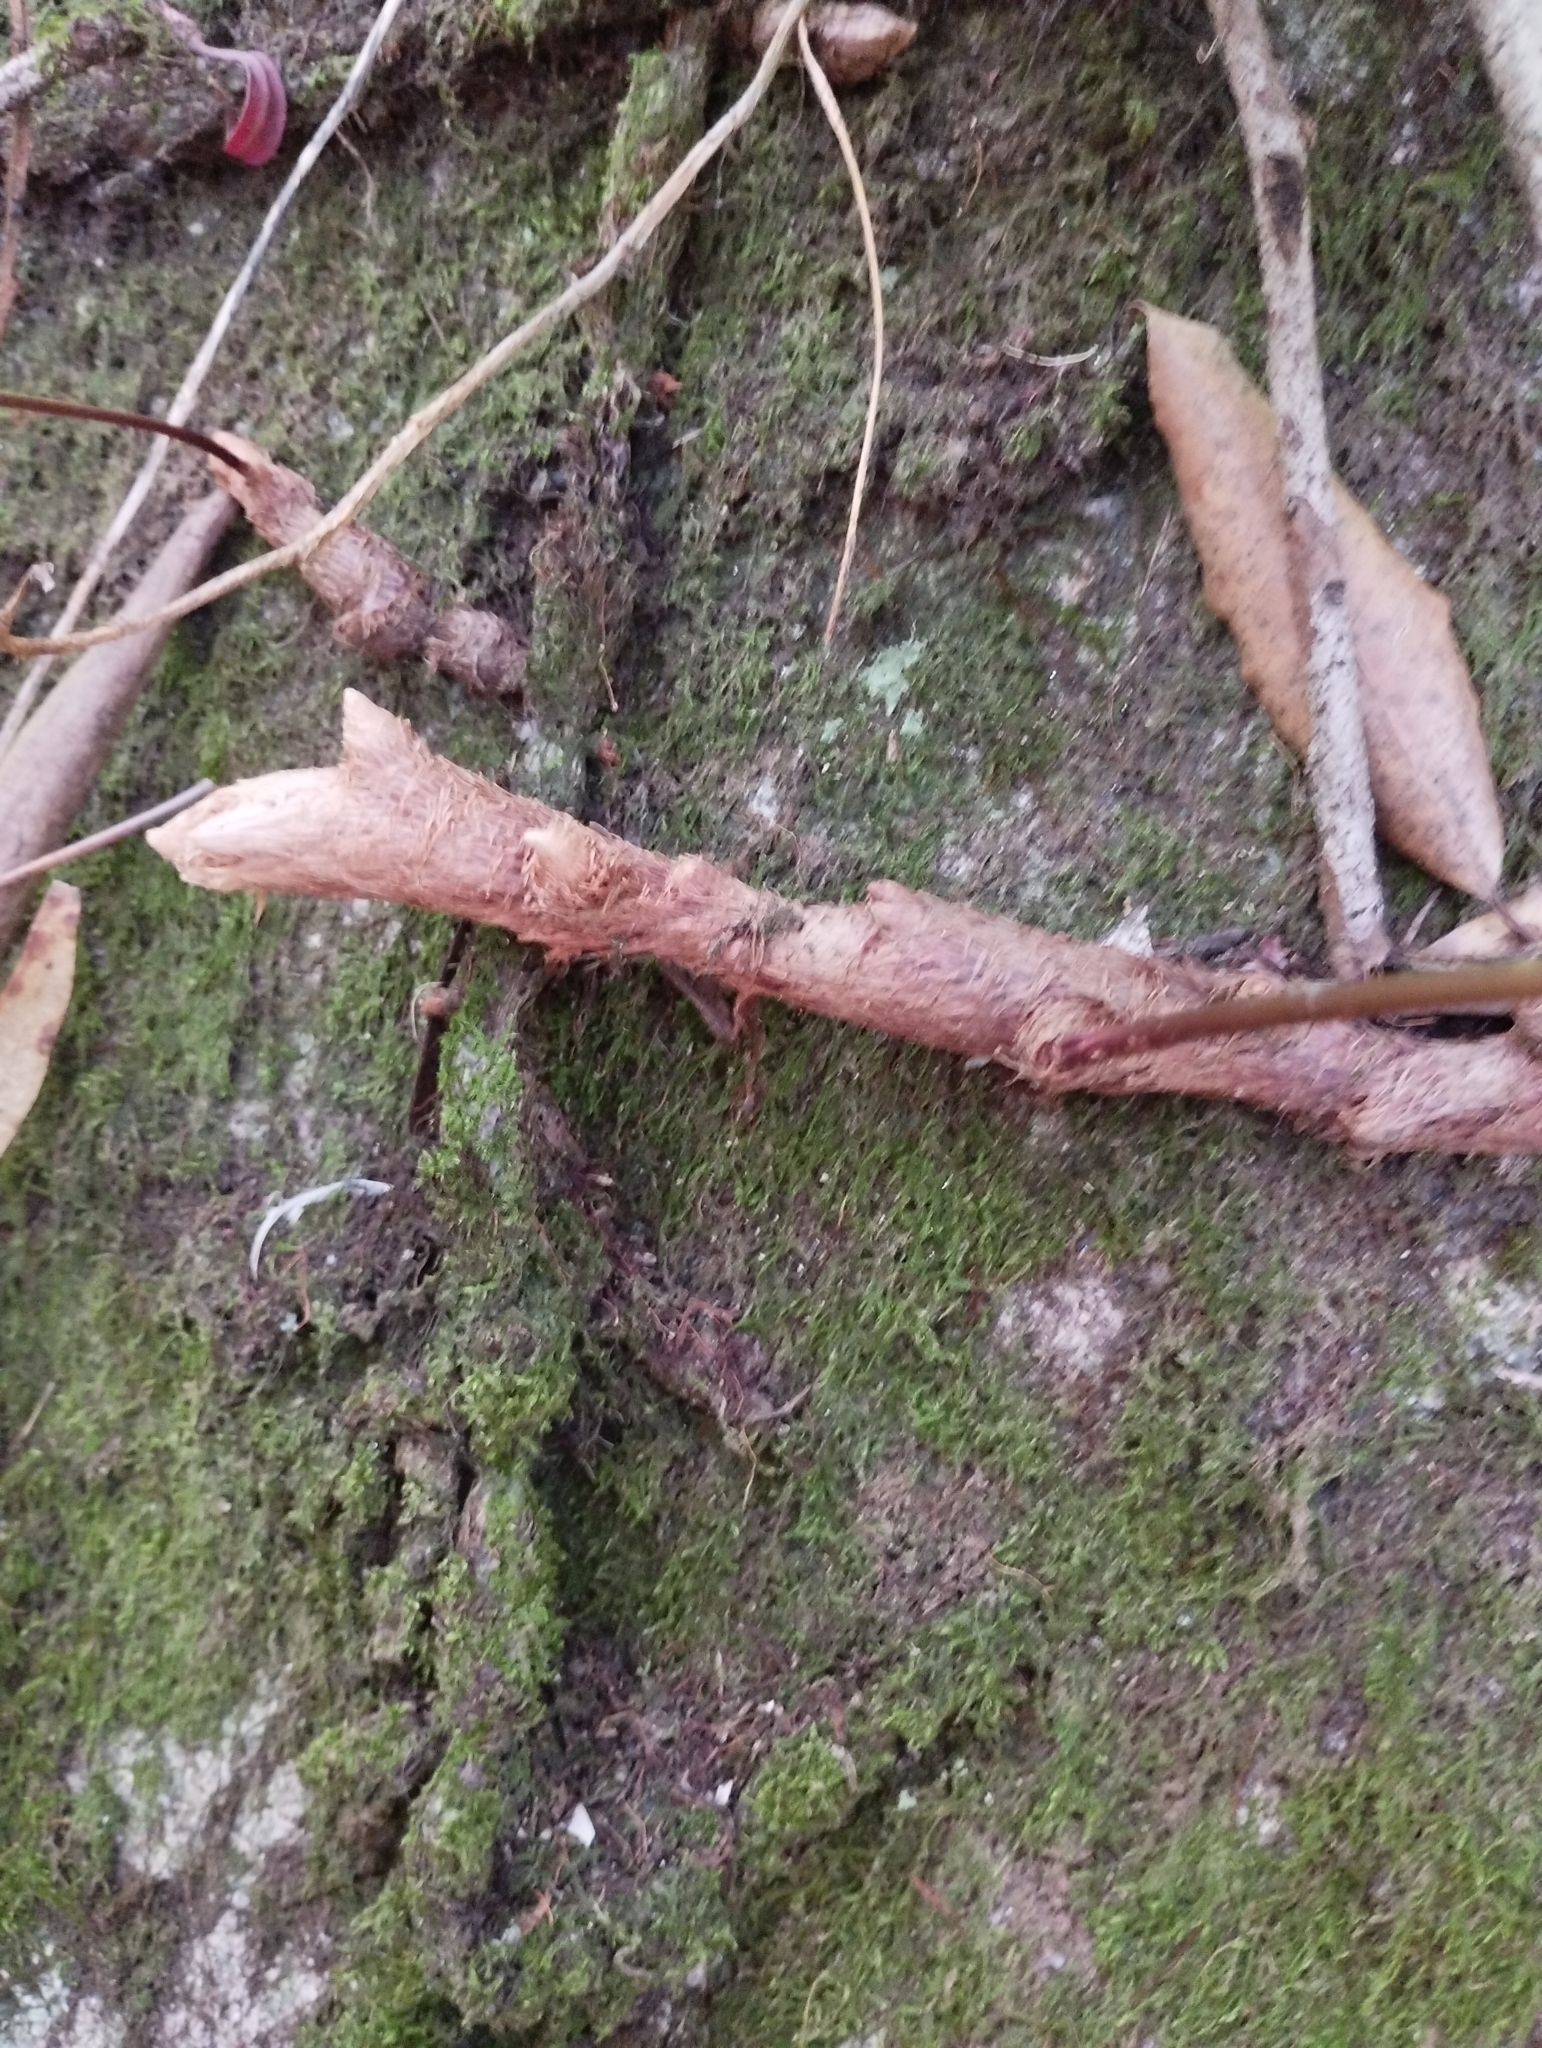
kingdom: Plantae
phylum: Tracheophyta
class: Polypodiopsida
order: Polypodiales
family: Davalliaceae
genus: Davallia
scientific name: Davallia canariensis
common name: Hare's-foot fern
